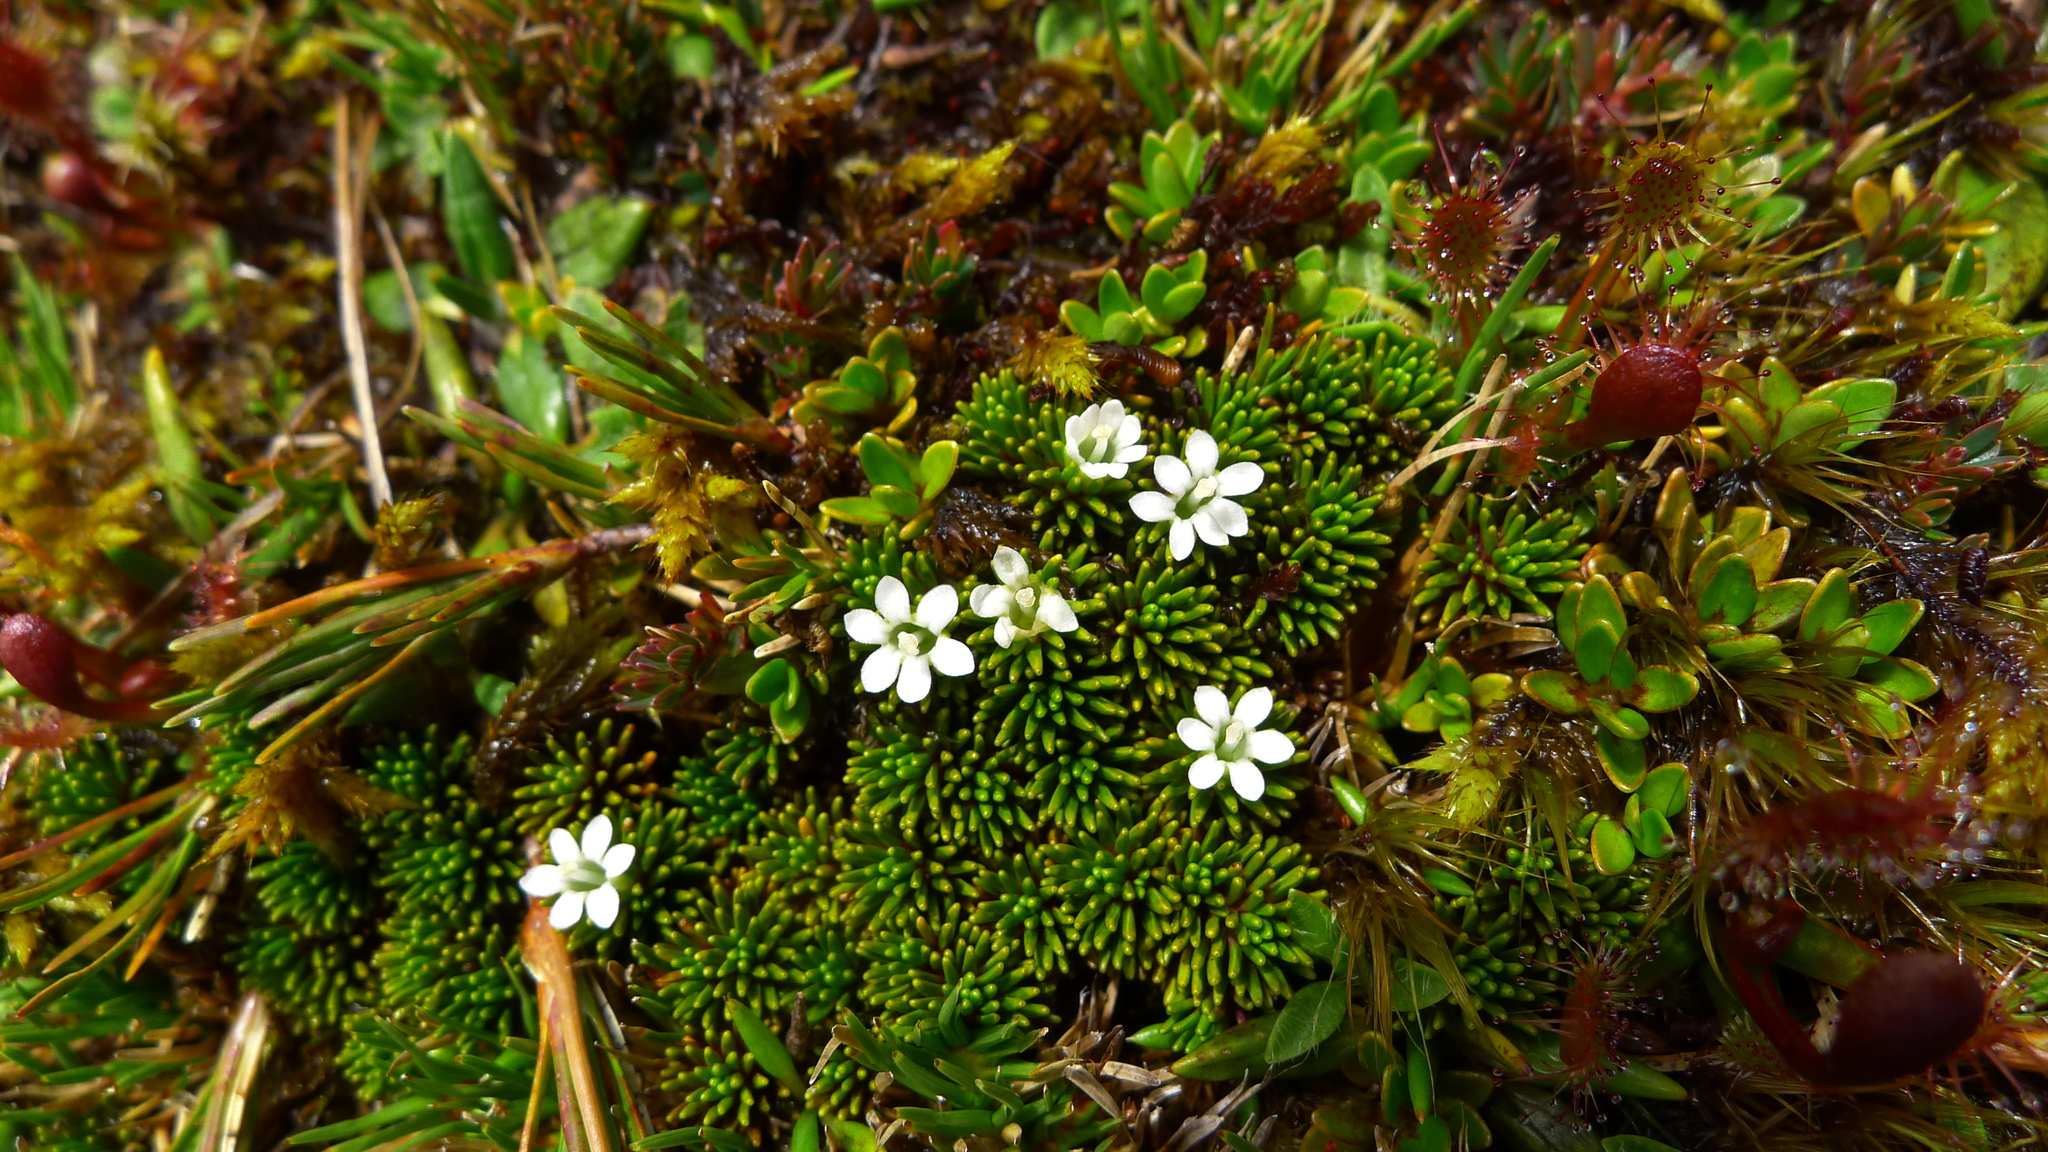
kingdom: Plantae
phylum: Tracheophyta
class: Magnoliopsida
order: Asterales
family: Stylidiaceae
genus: Phyllachne
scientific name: Phyllachne colensoi
